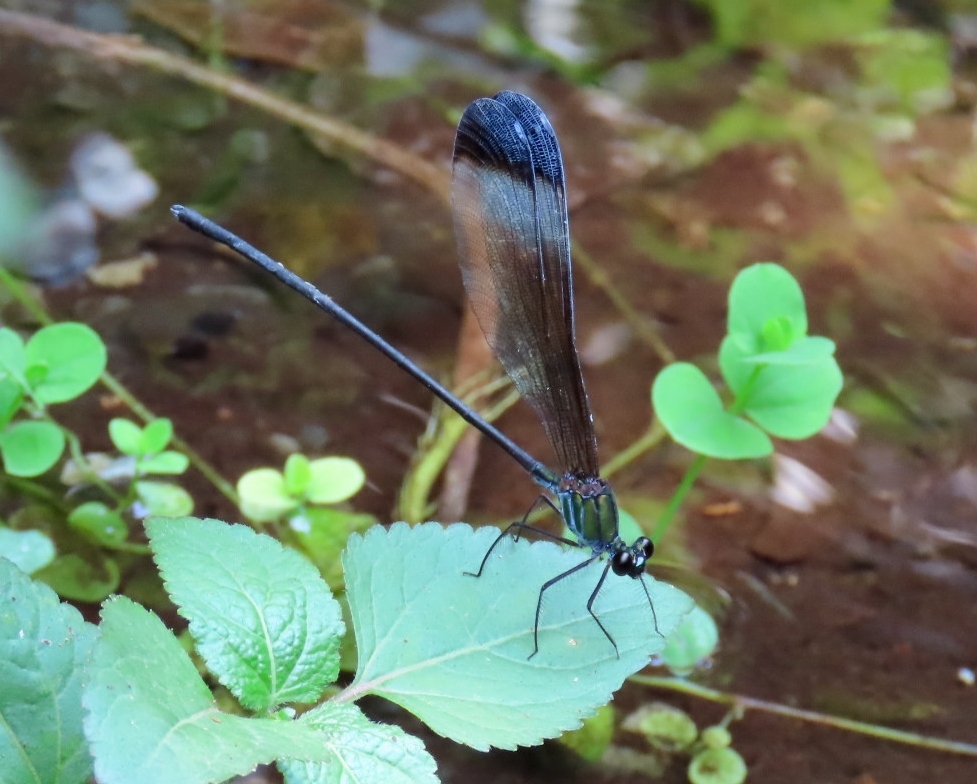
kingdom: Animalia
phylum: Arthropoda
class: Insecta
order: Odonata
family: Calopterygidae
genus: Psolodesmus
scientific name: Psolodesmus mandarinus
